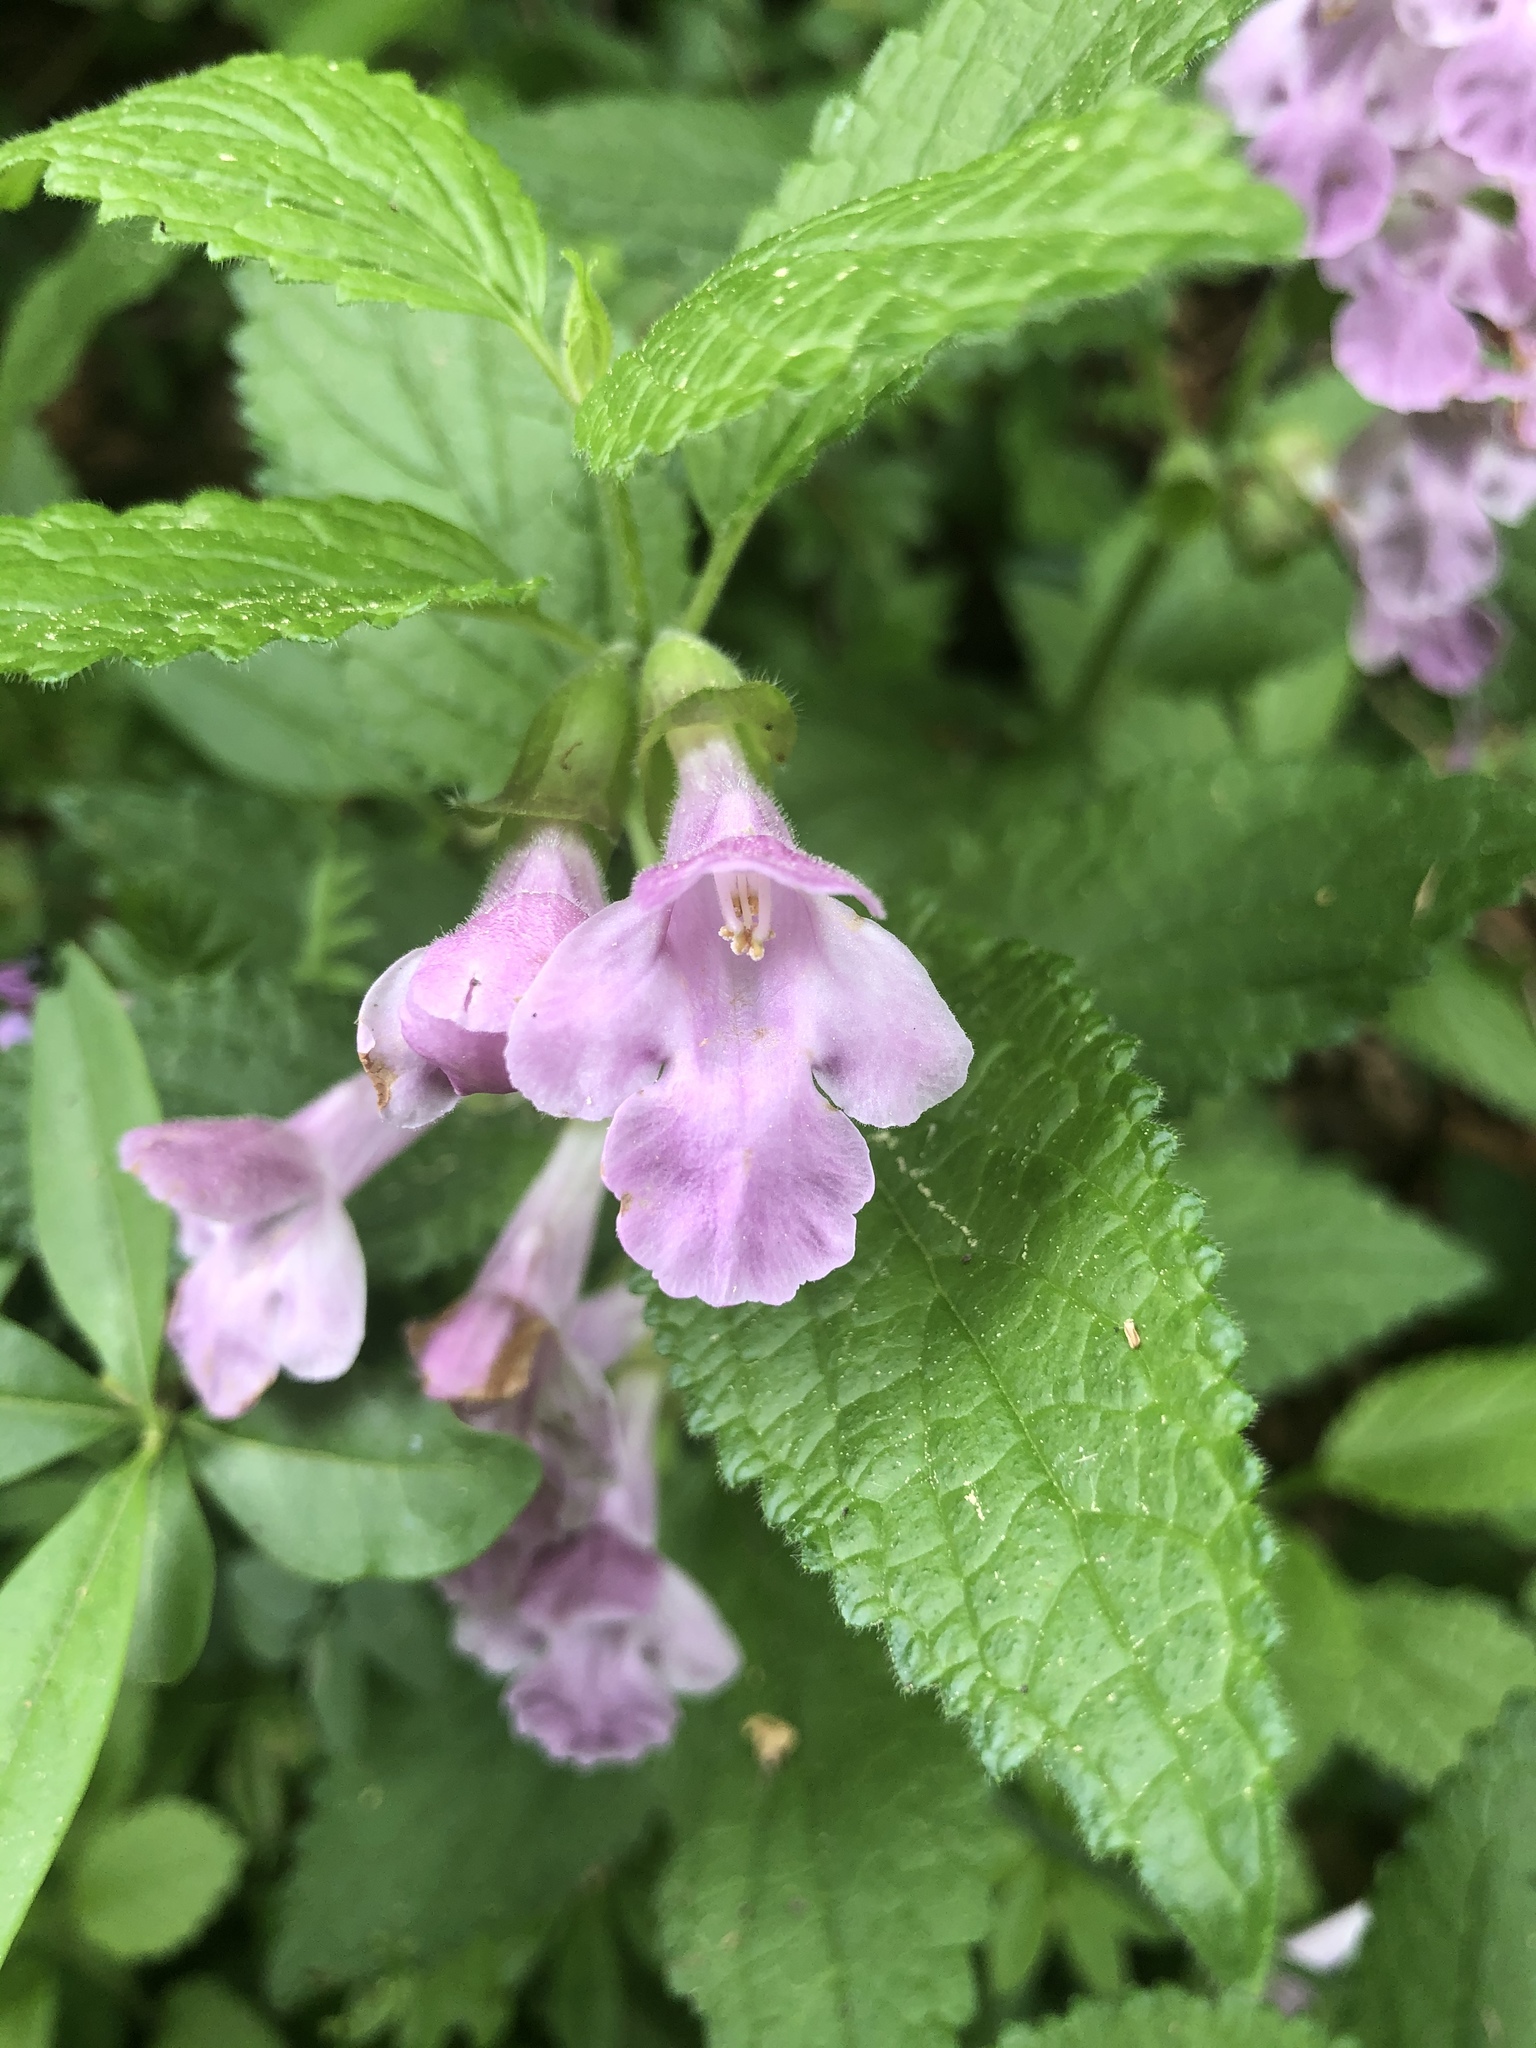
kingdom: Plantae
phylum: Tracheophyta
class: Magnoliopsida
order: Lamiales
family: Lamiaceae
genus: Melittis
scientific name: Melittis melissophyllum
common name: Bastard balm
